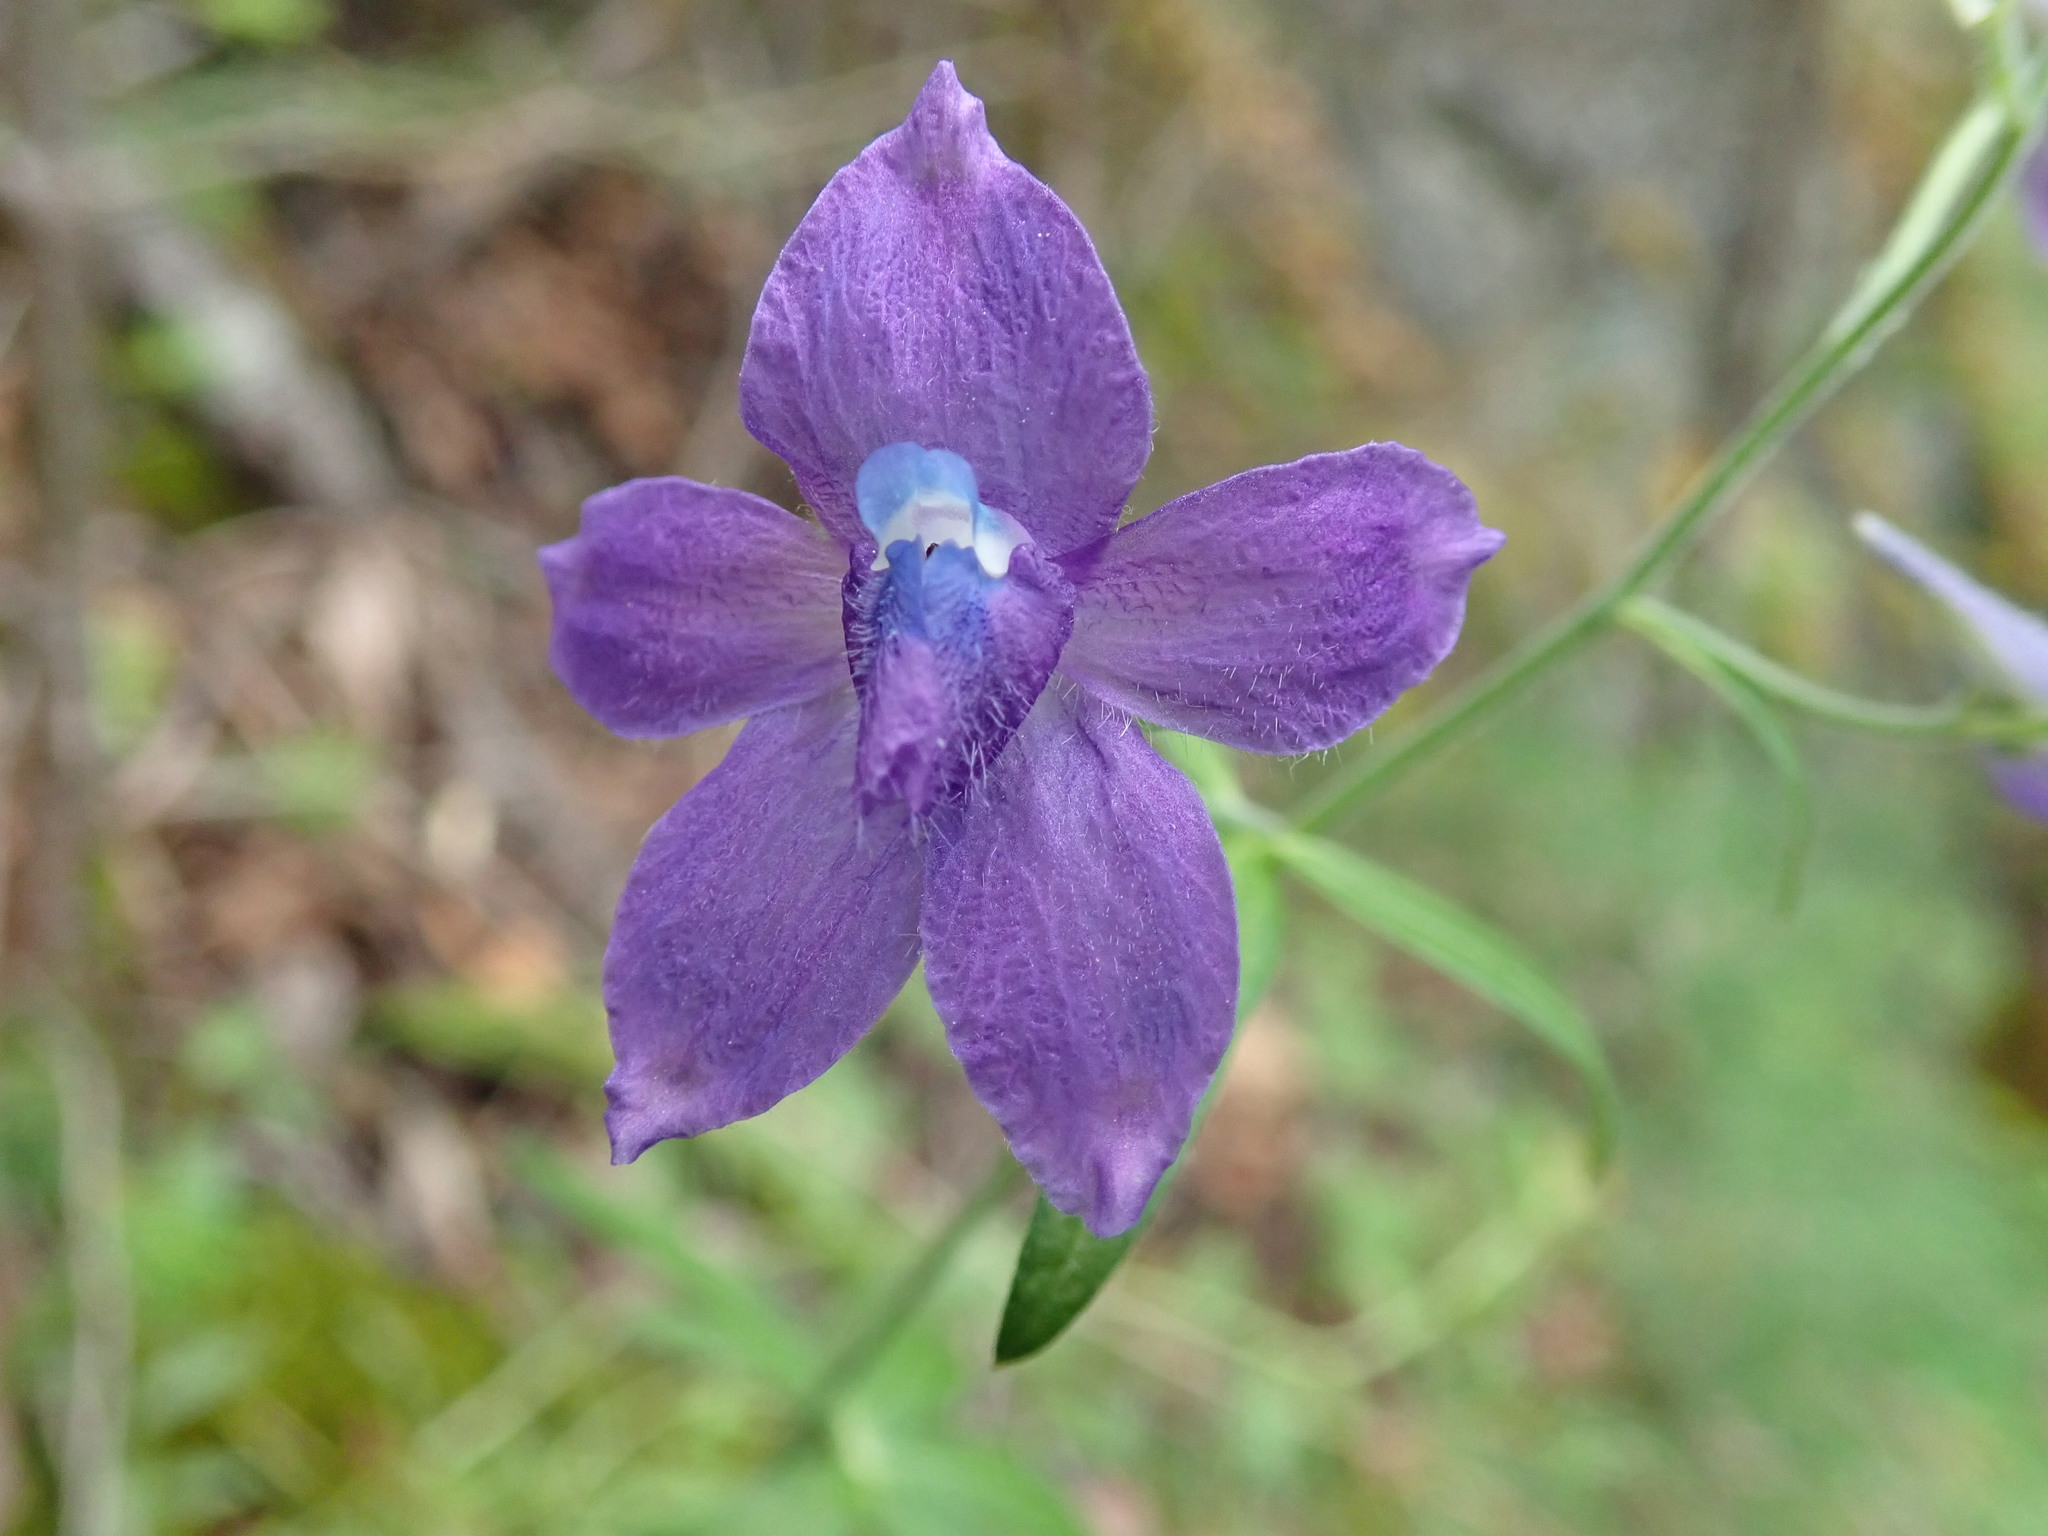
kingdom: Plantae
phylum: Tracheophyta
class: Magnoliopsida
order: Ranunculales
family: Ranunculaceae
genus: Delphinium
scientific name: Delphinium menziesii
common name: Menzies's larkspur
